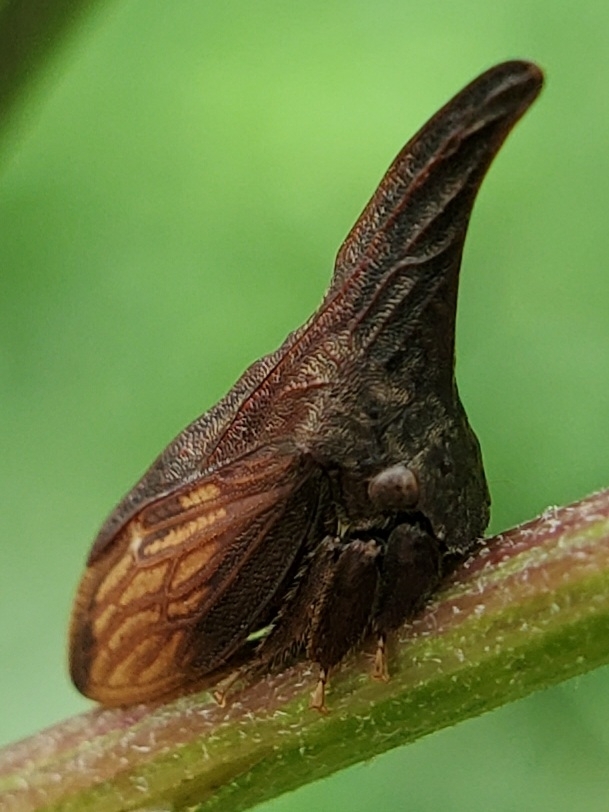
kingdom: Animalia
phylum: Arthropoda
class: Insecta
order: Hemiptera
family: Membracidae
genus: Enchenopa
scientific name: Enchenopa latipes
